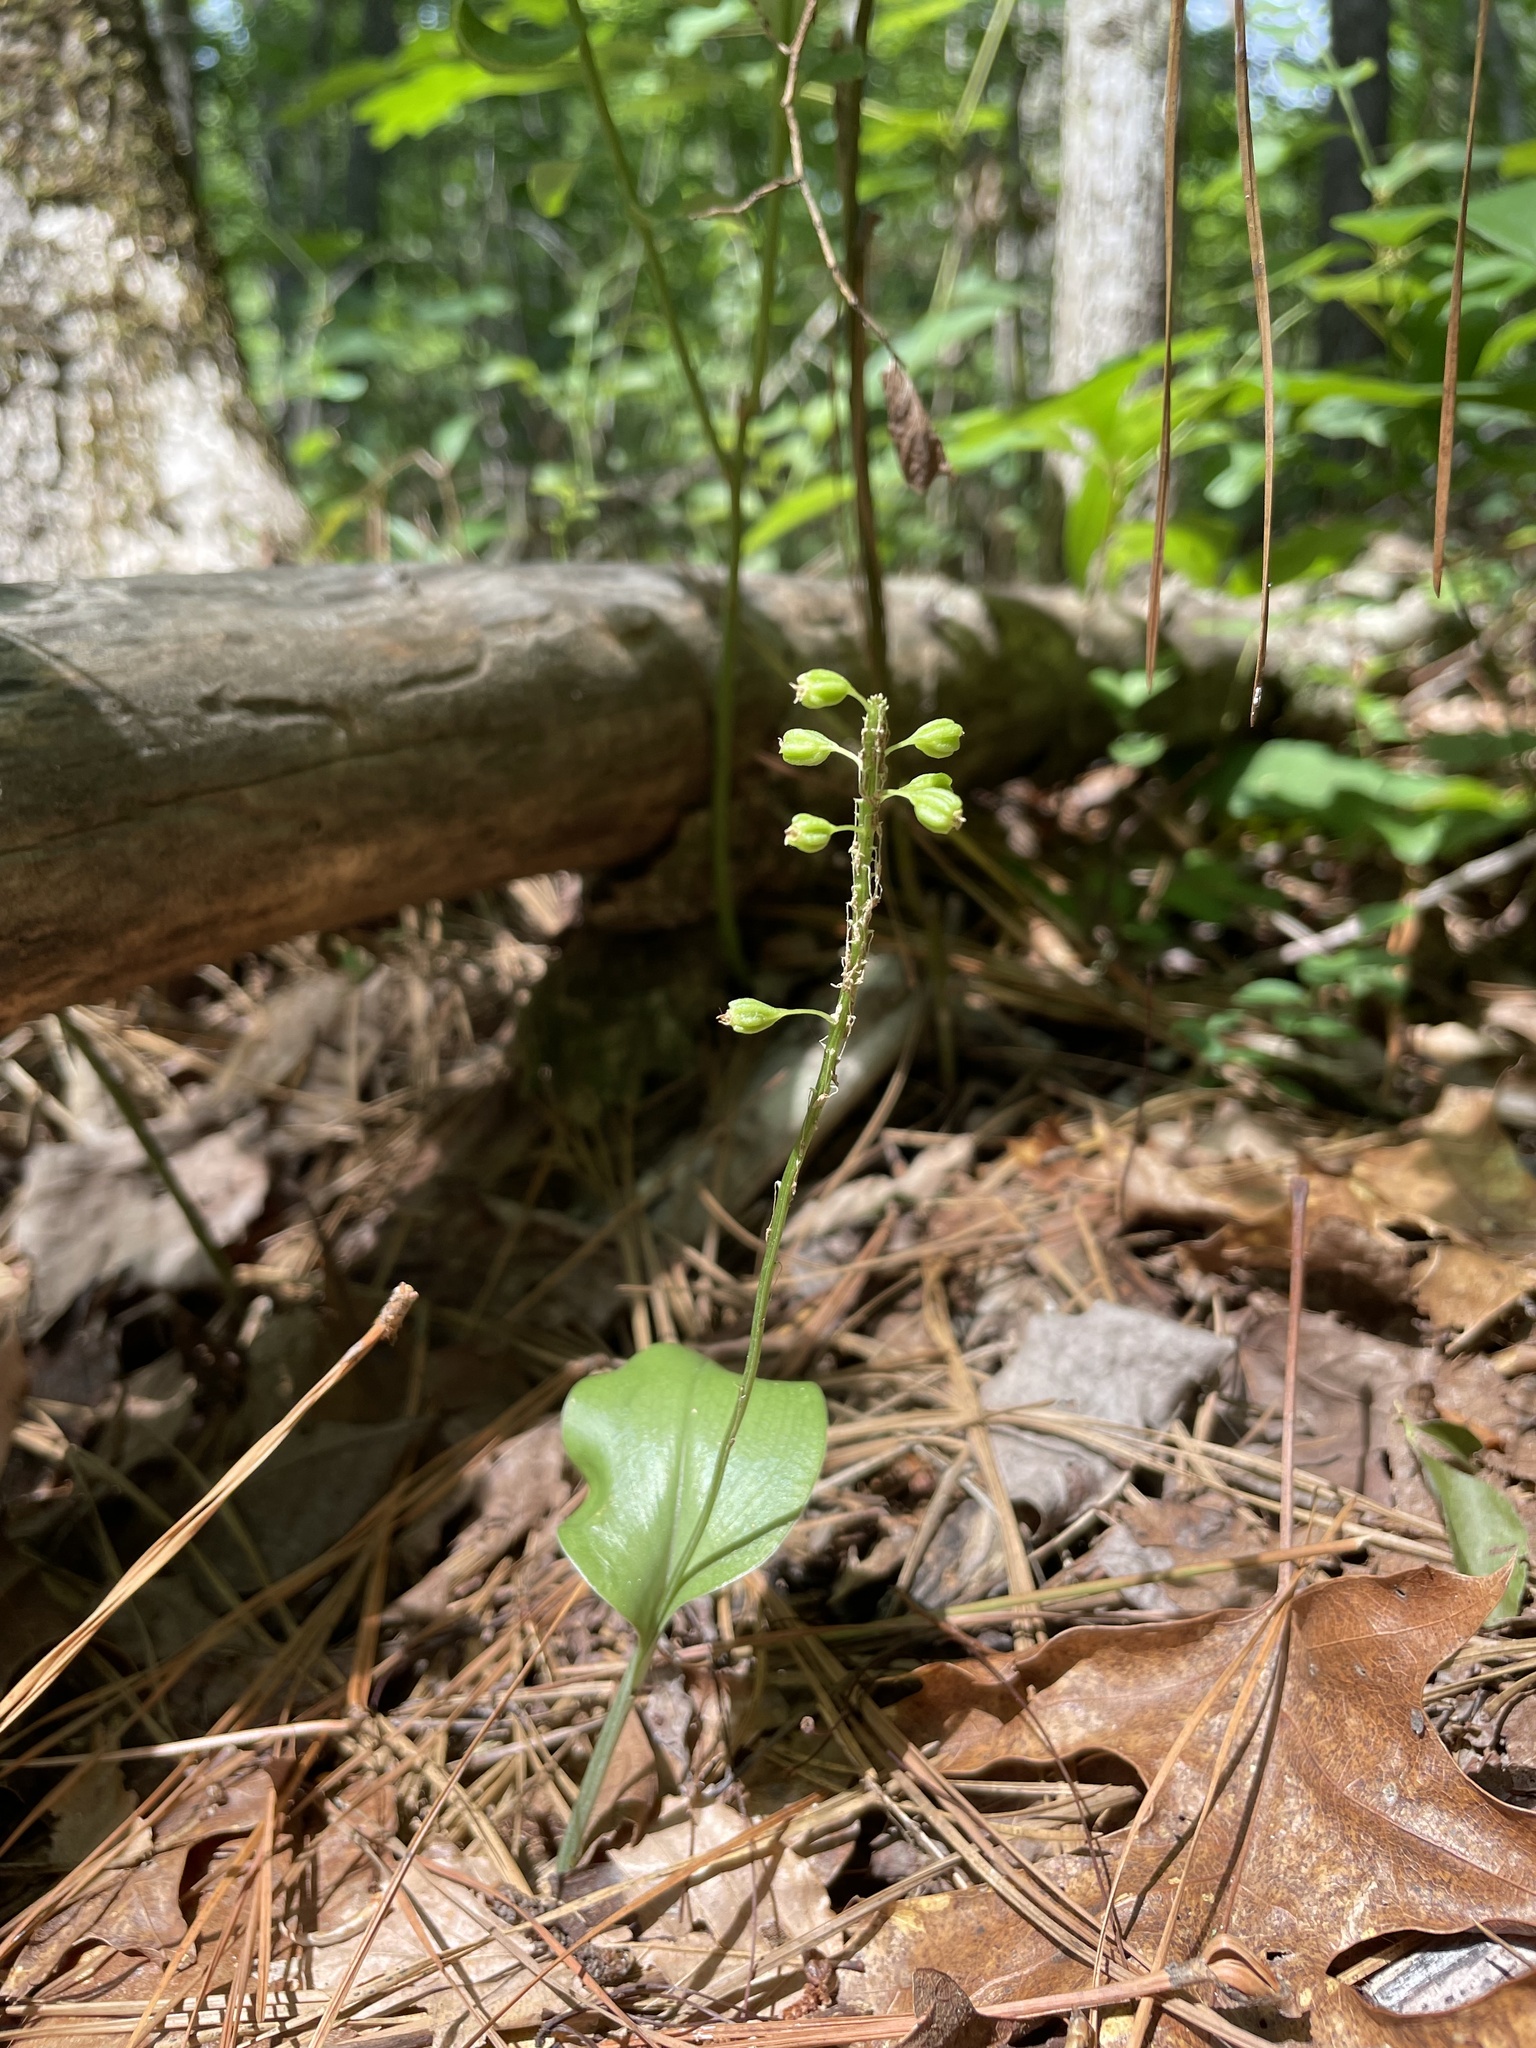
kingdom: Plantae
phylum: Tracheophyta
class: Liliopsida
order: Asparagales
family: Orchidaceae
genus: Malaxis
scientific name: Malaxis unifolia
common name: Green adder's-mouth
